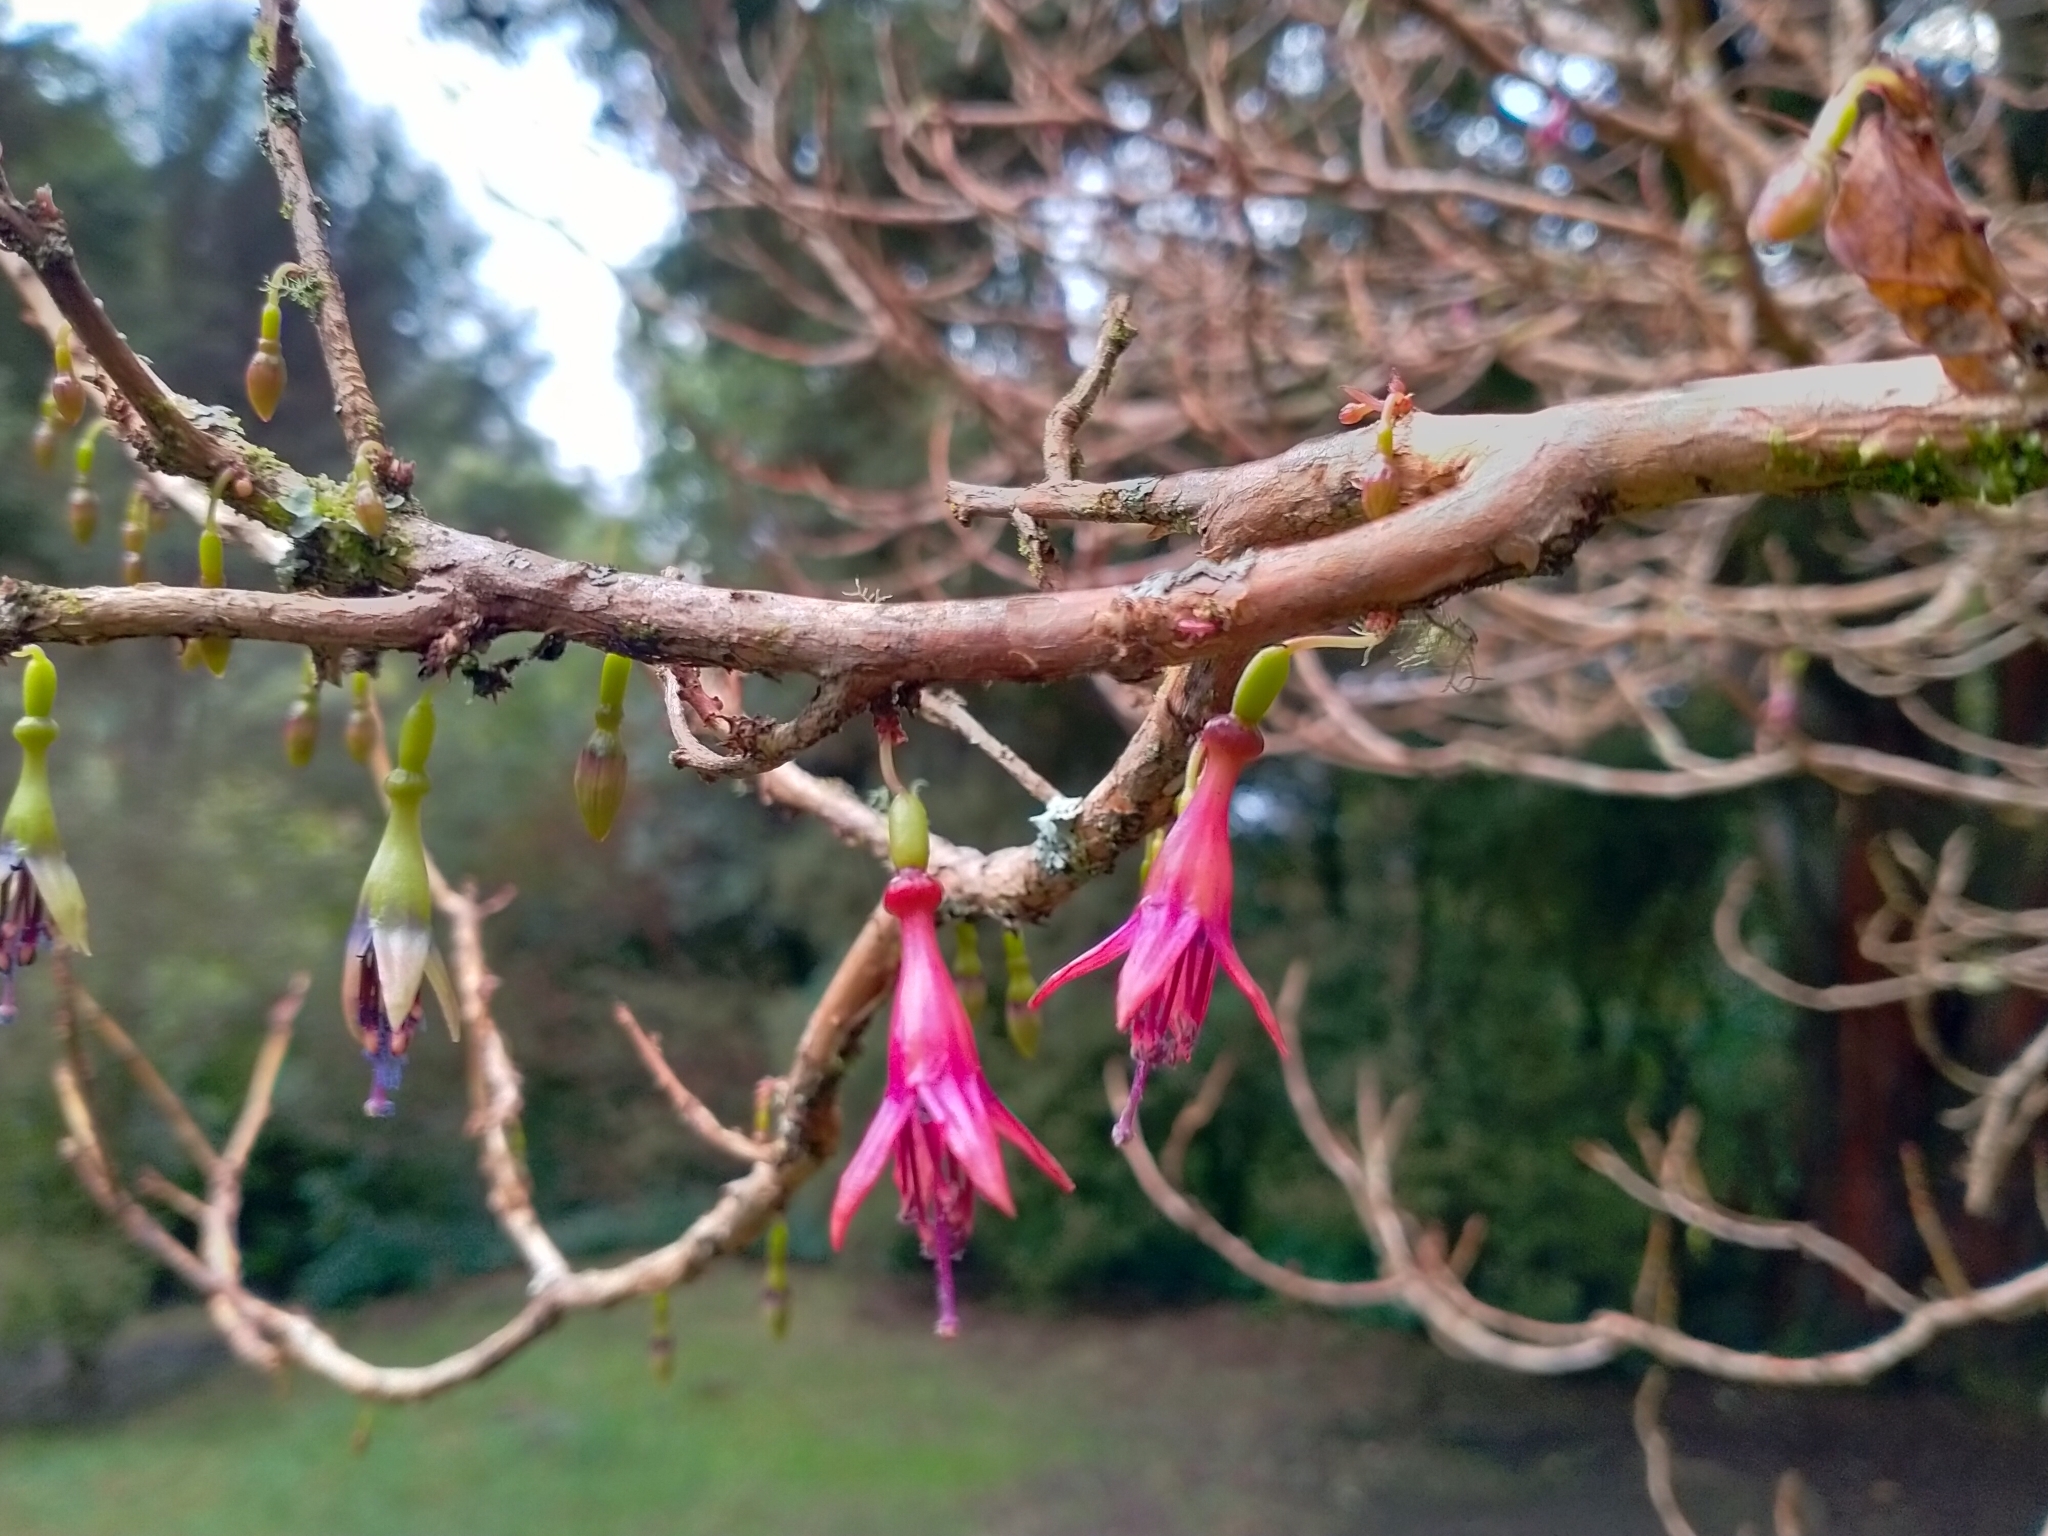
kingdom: Plantae
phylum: Tracheophyta
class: Magnoliopsida
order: Myrtales
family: Onagraceae
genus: Fuchsia
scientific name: Fuchsia excorticata
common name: Tree fuchsia
